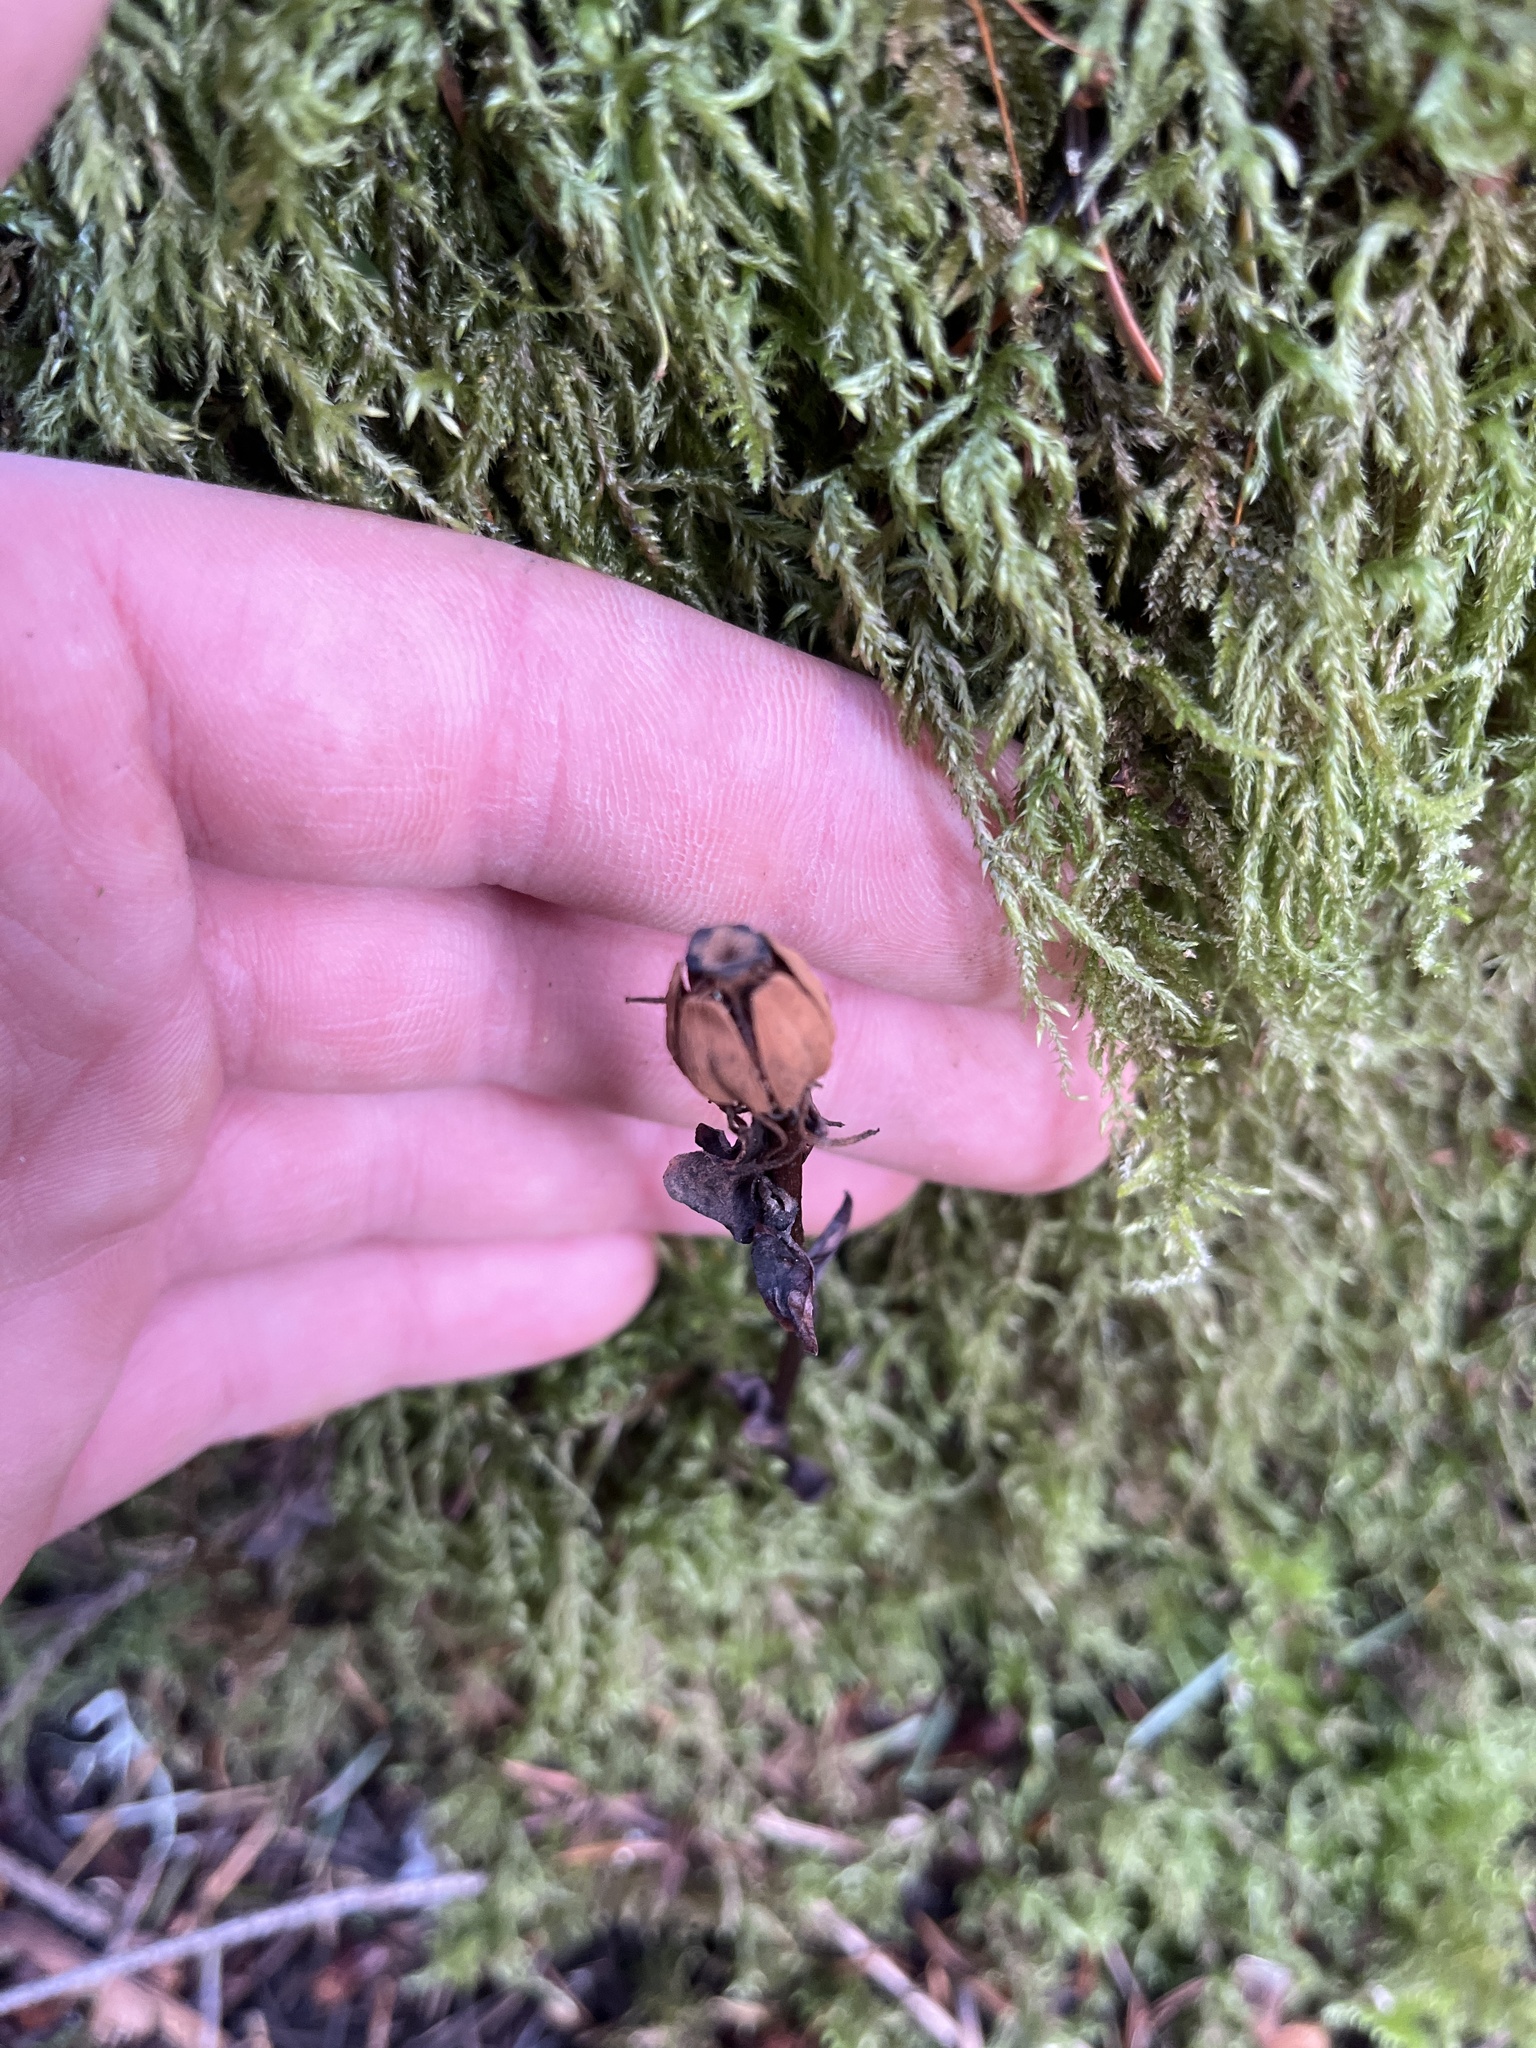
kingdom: Plantae
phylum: Tracheophyta
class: Magnoliopsida
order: Ericales
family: Ericaceae
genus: Monotropa
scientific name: Monotropa uniflora
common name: Convulsion root
